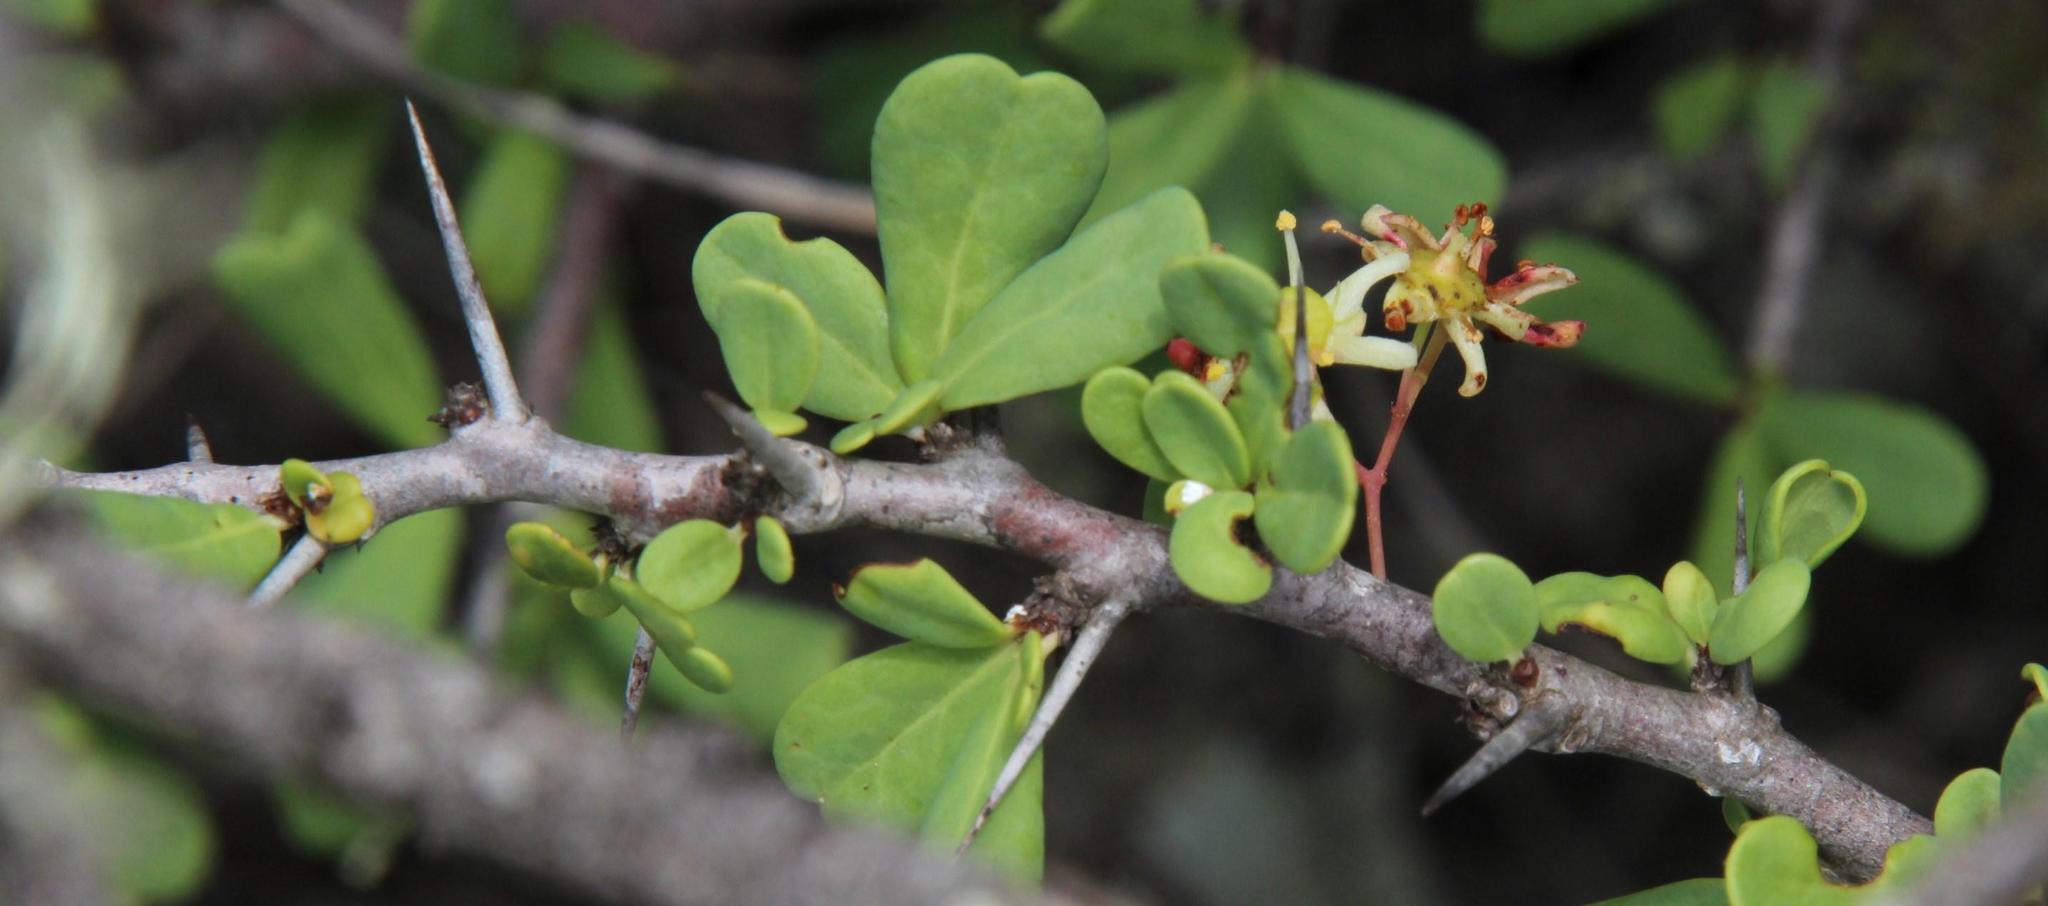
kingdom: Plantae
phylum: Tracheophyta
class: Magnoliopsida
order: Celastrales
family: Celastraceae
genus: Putterlickia
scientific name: Putterlickia pyracantha
